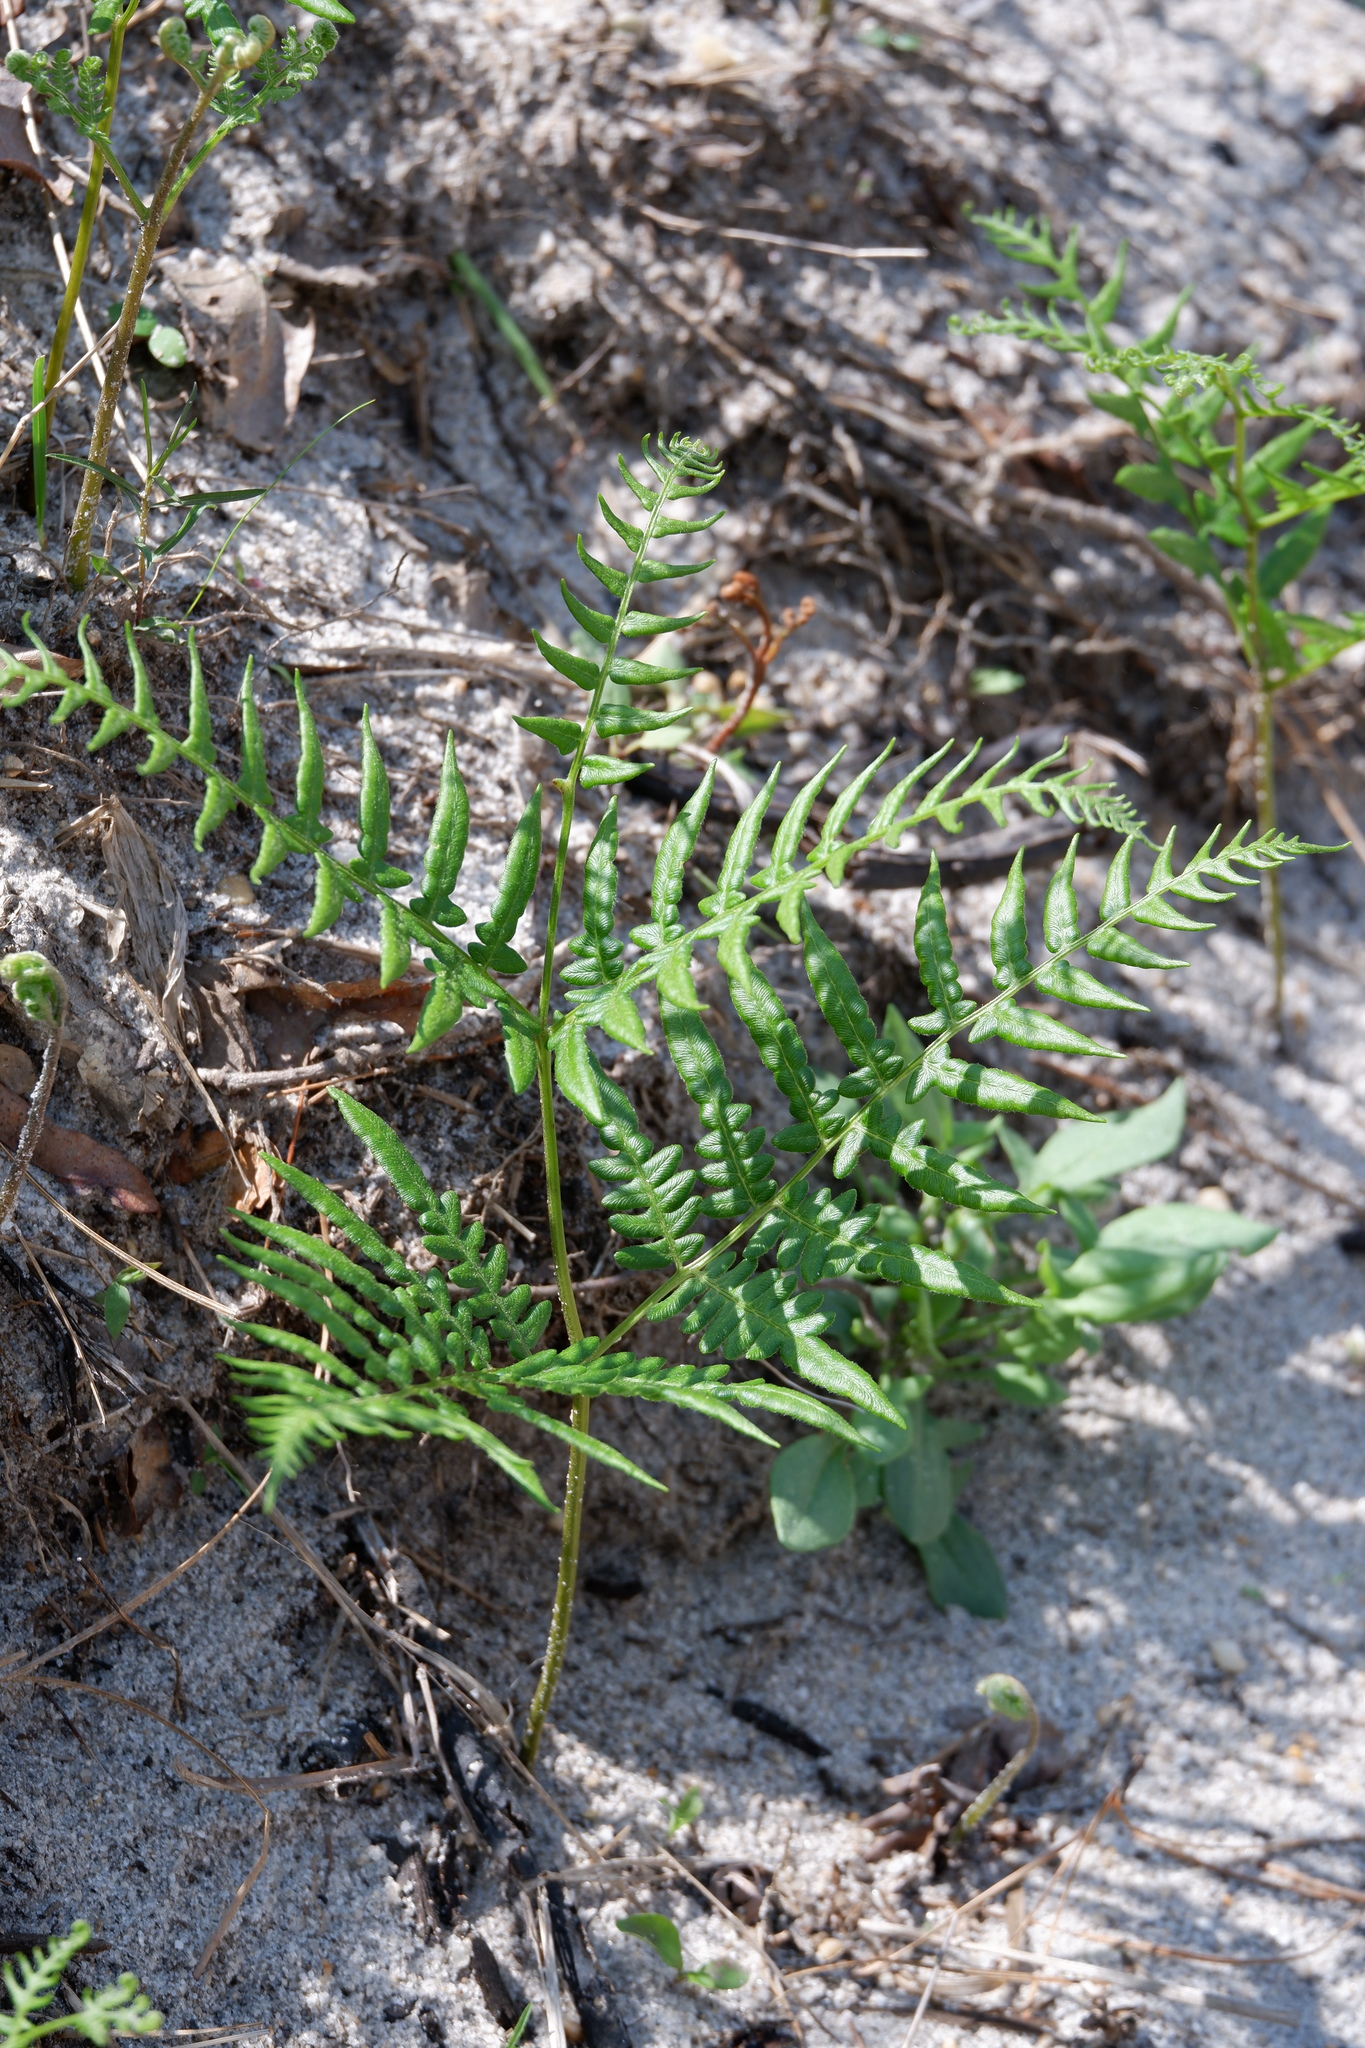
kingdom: Plantae
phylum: Tracheophyta
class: Polypodiopsida
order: Polypodiales
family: Dennstaedtiaceae
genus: Pteridium
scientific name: Pteridium aquilinum
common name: Bracken
